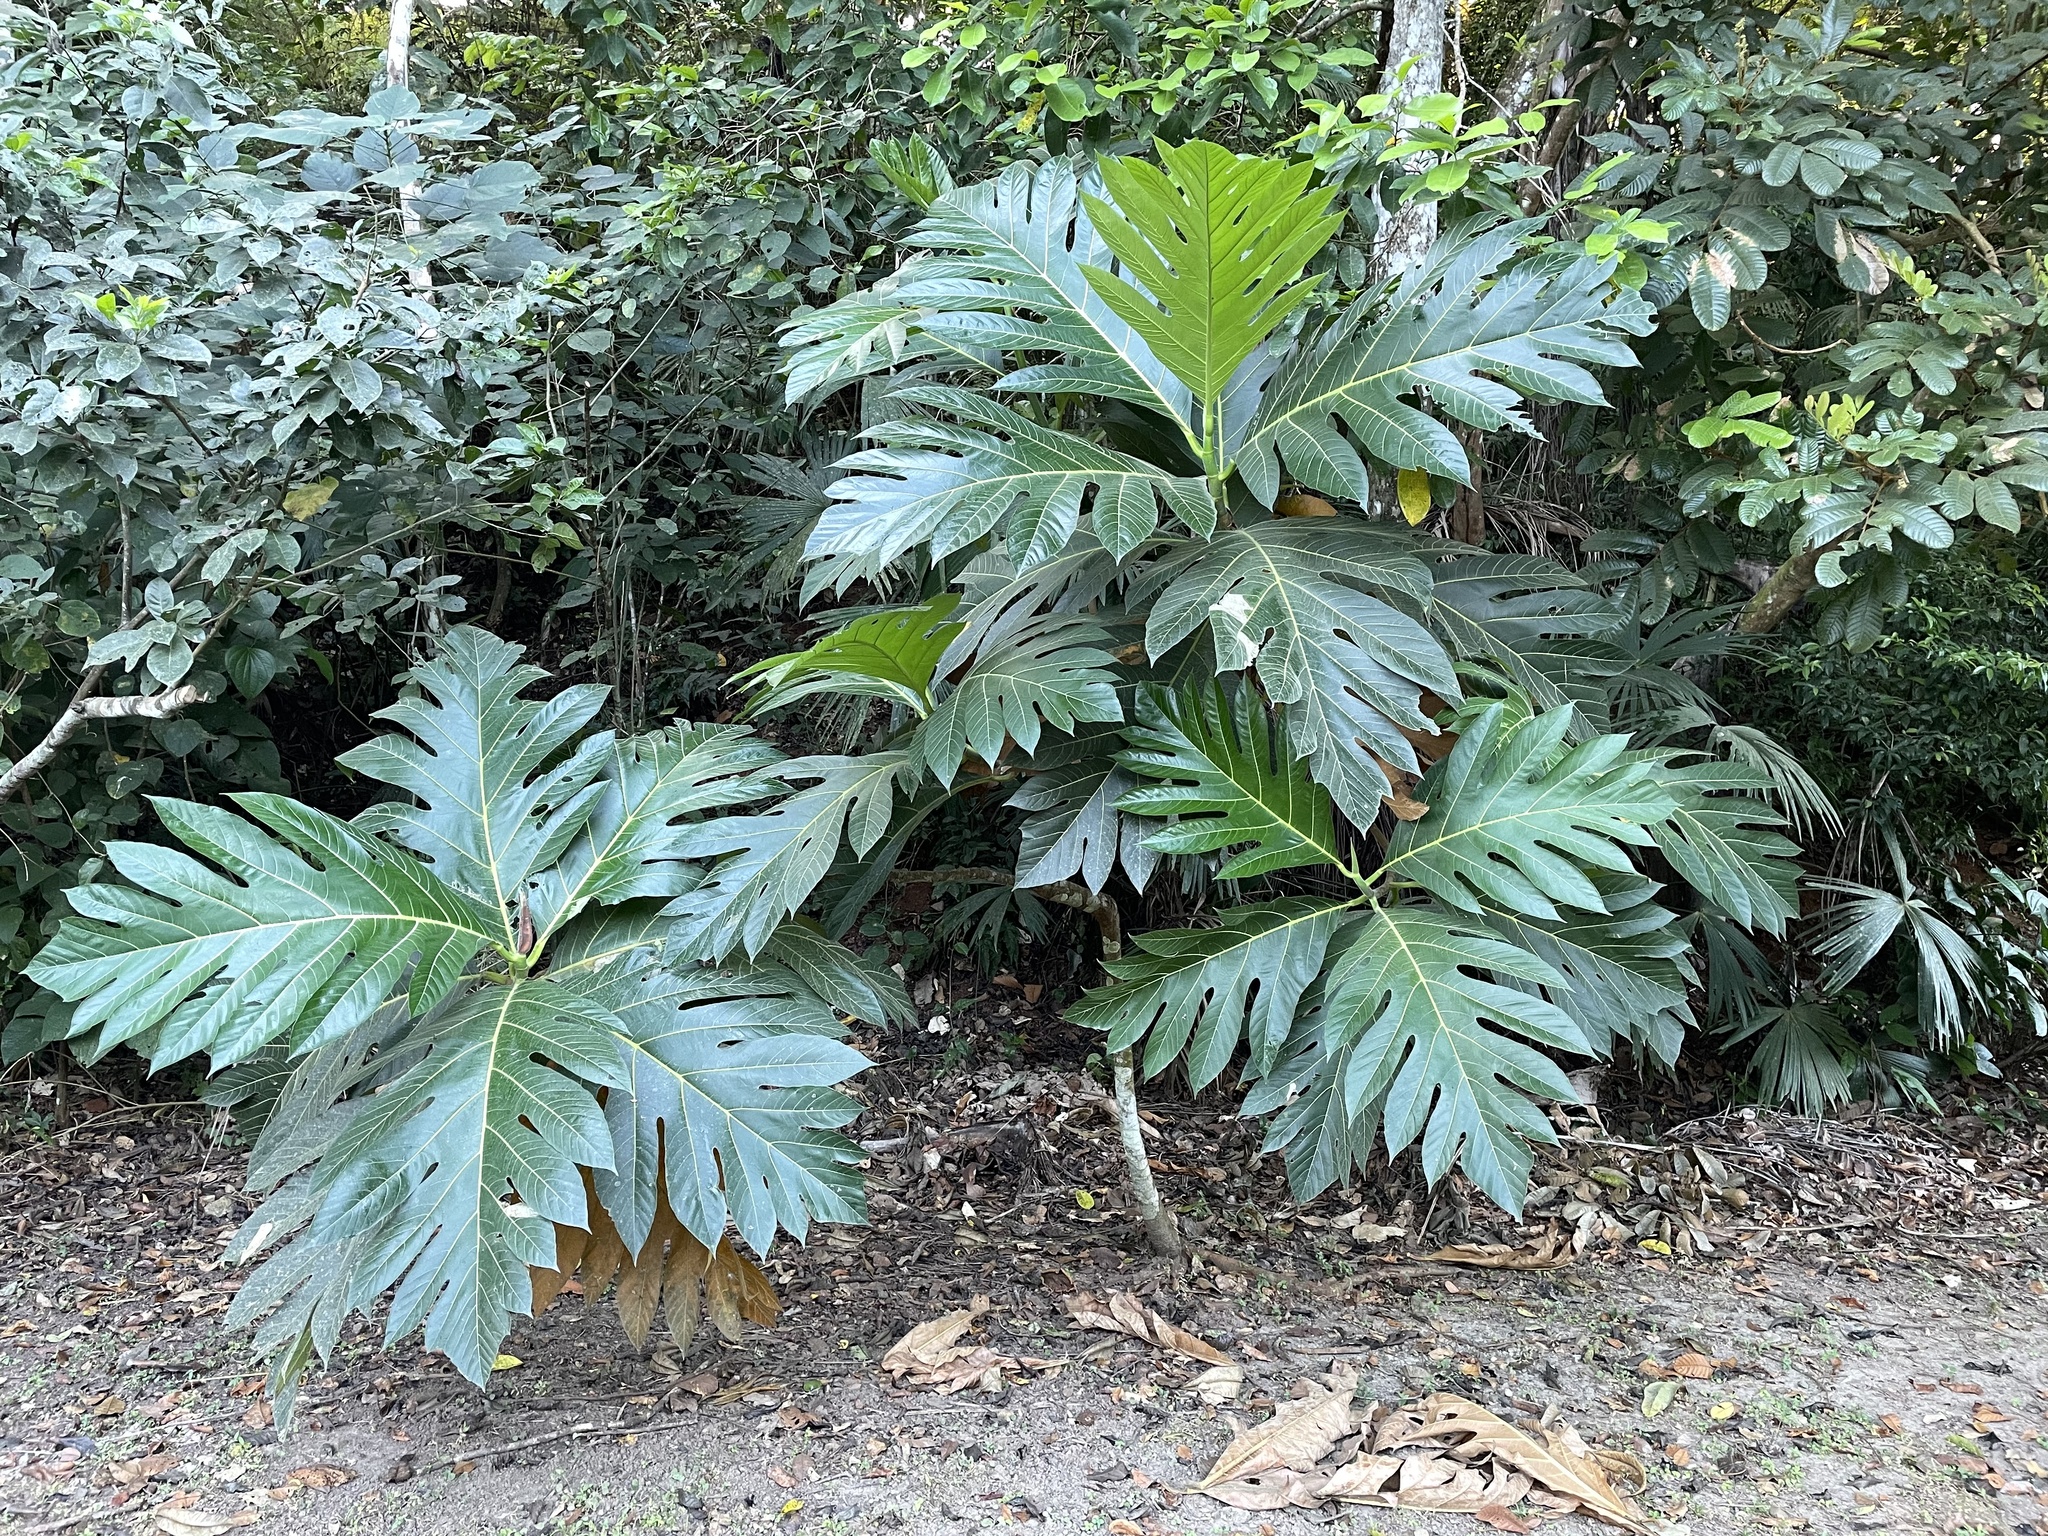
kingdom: Plantae
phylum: Tracheophyta
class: Magnoliopsida
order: Rosales
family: Moraceae
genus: Artocarpus
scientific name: Artocarpus heterophyllus
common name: Jackfruit
